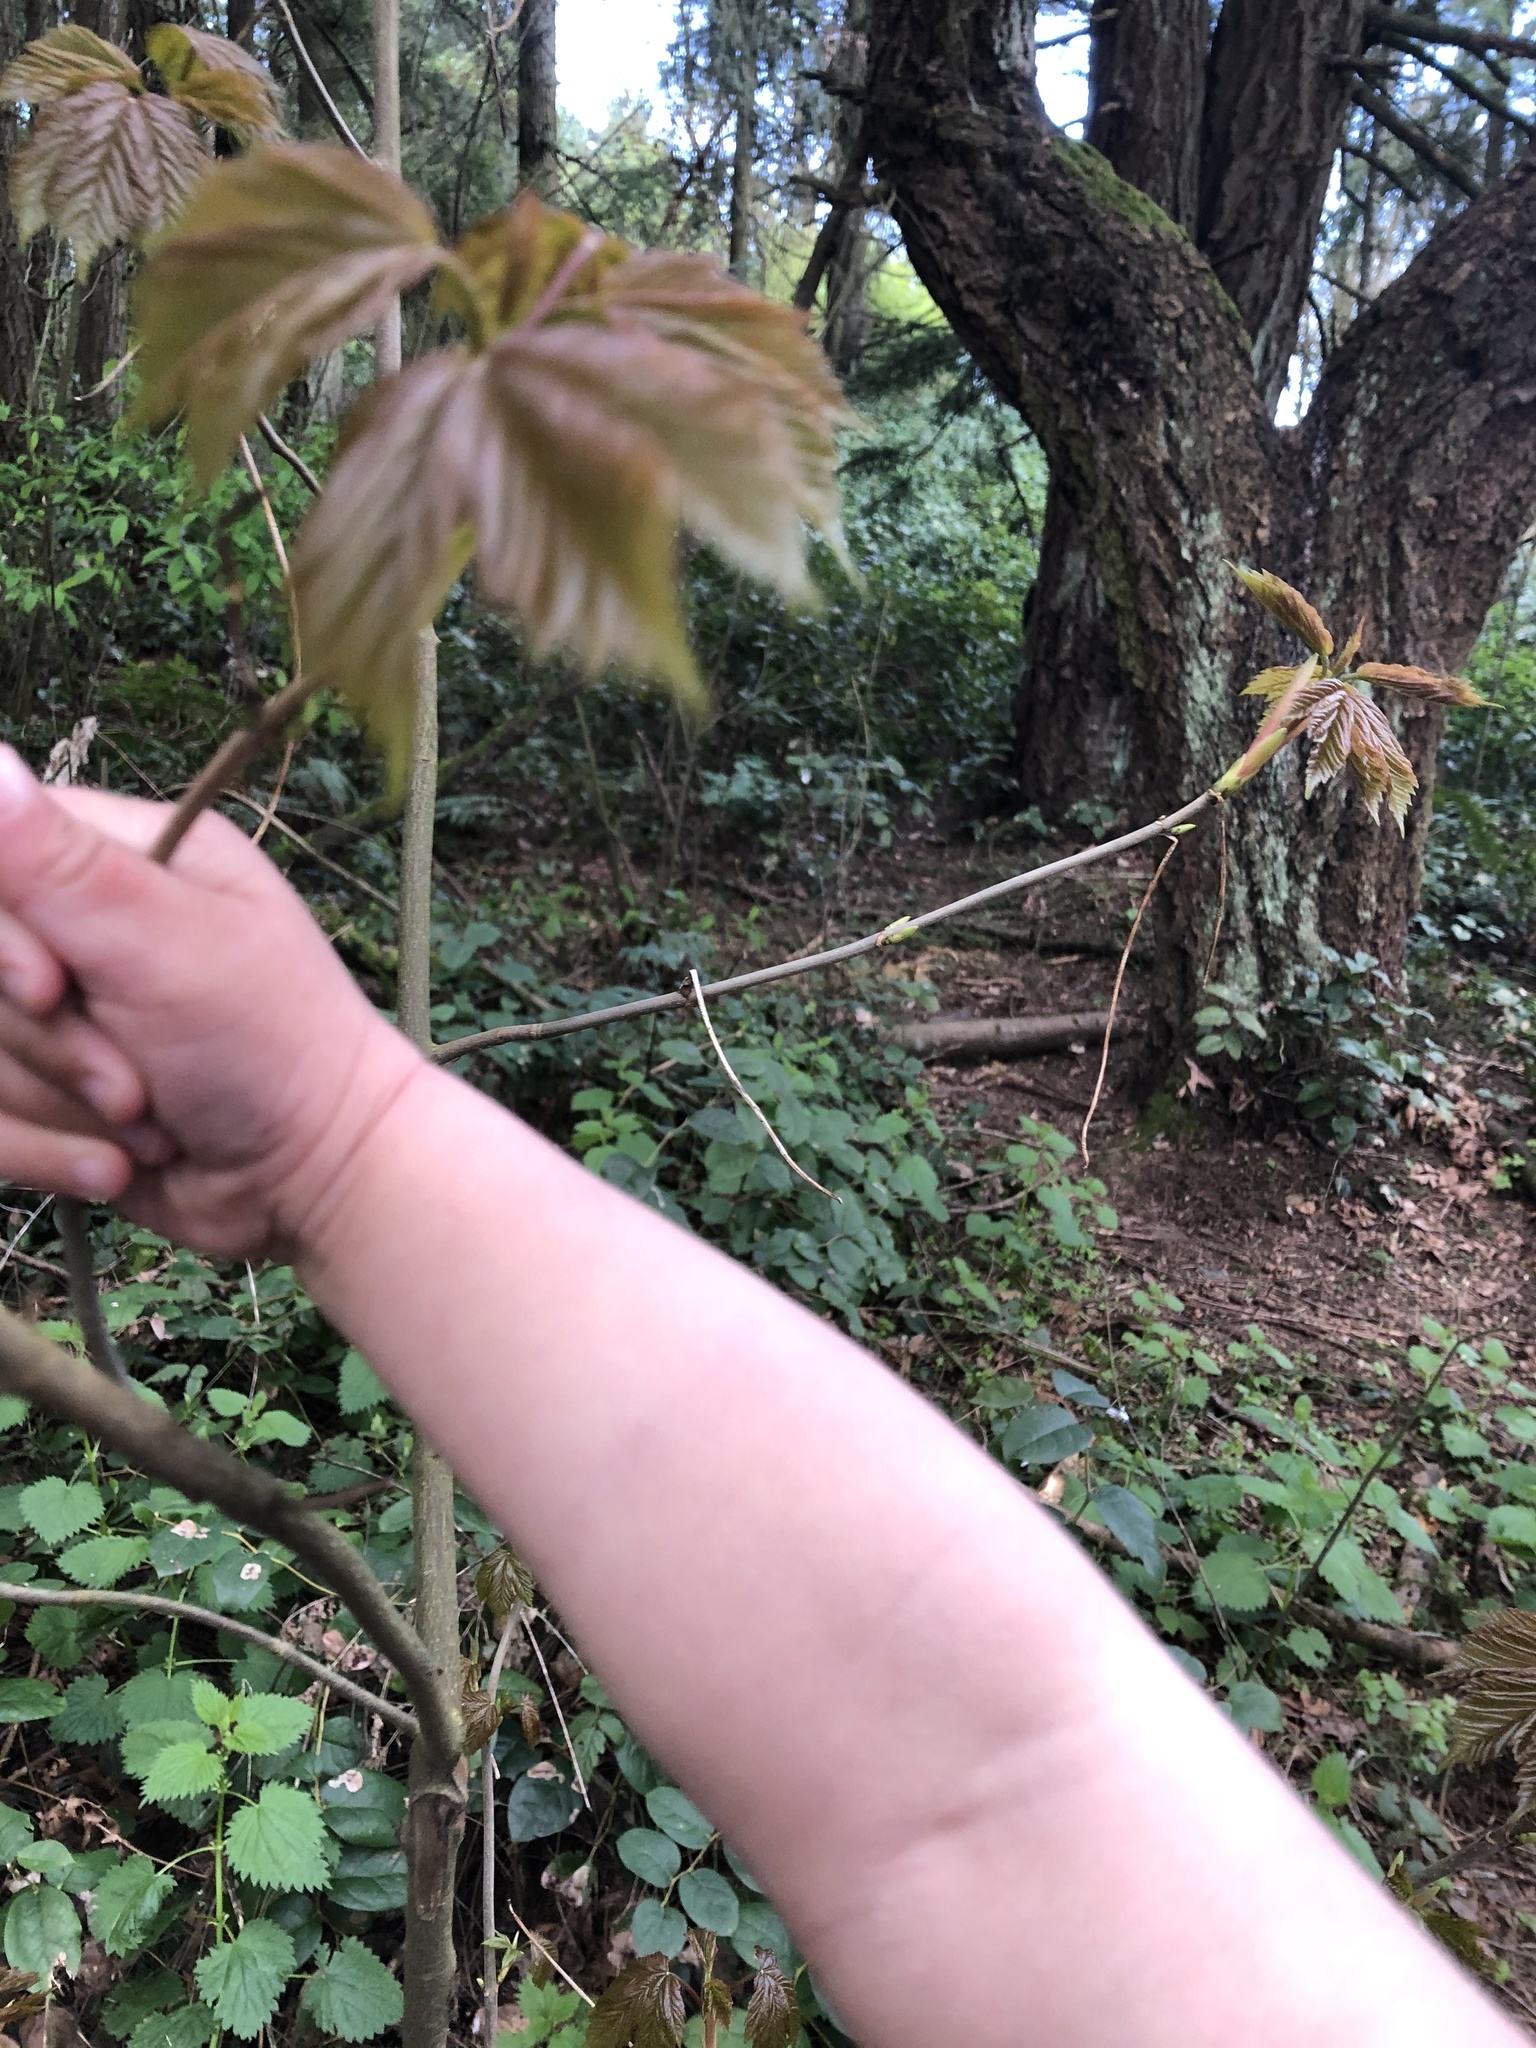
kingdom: Plantae
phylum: Tracheophyta
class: Magnoliopsida
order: Sapindales
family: Sapindaceae
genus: Acer
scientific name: Acer pseudoplatanus
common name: Sycamore
